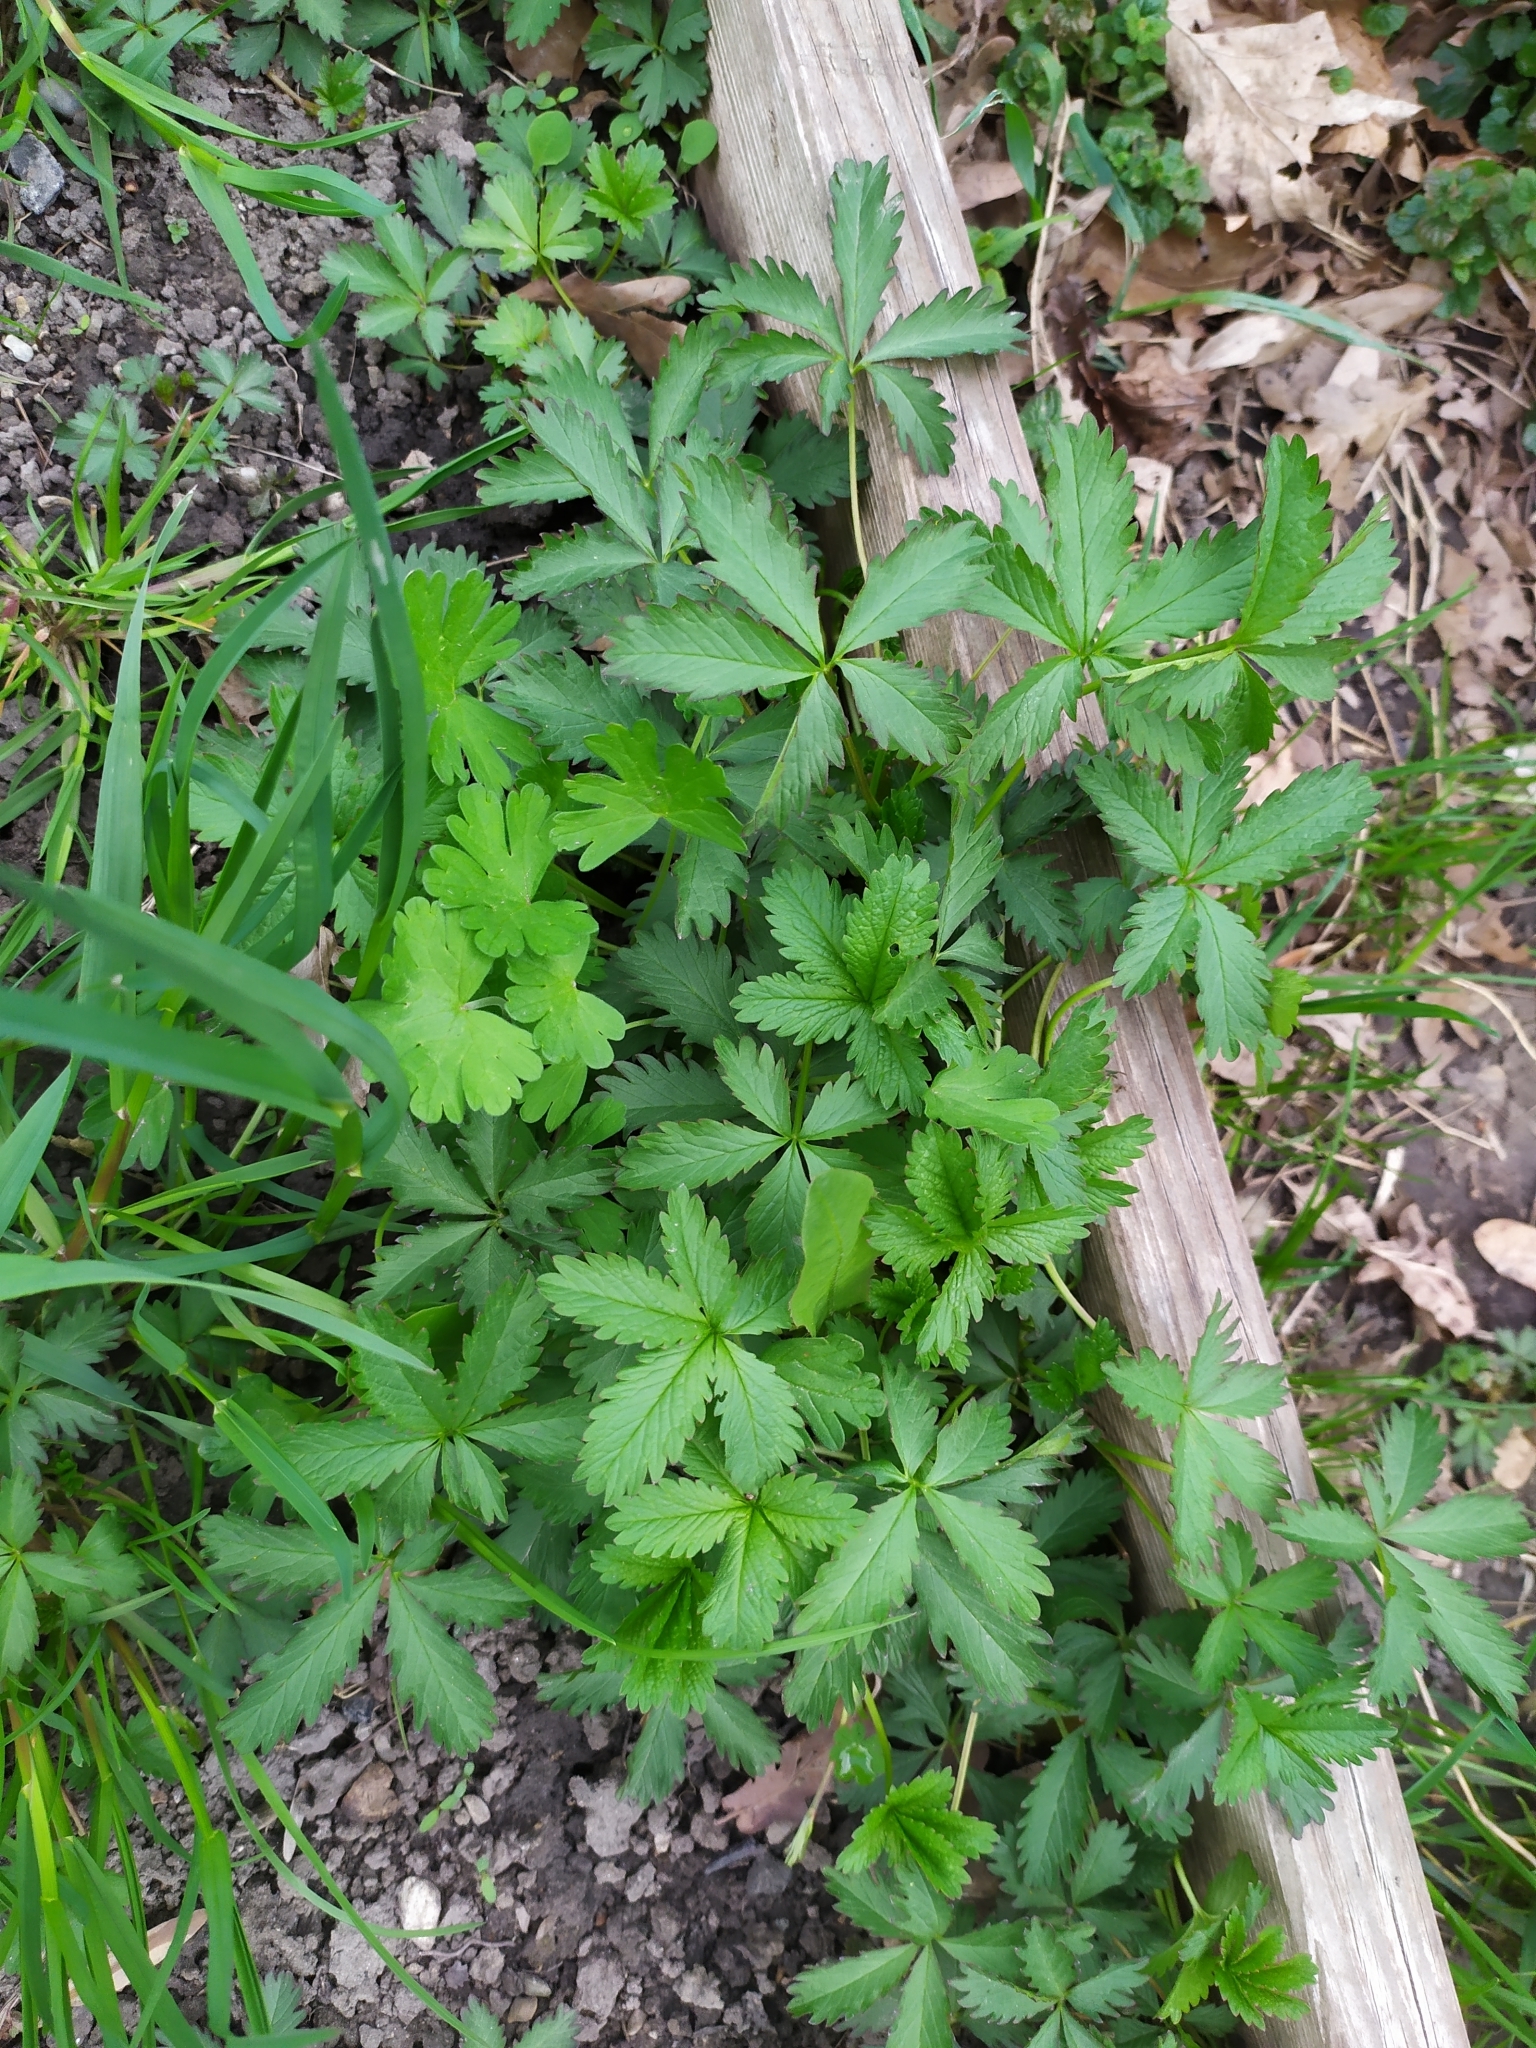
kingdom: Plantae
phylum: Tracheophyta
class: Magnoliopsida
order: Rosales
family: Rosaceae
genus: Potentilla
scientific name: Potentilla reptans
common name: Creeping cinquefoil
